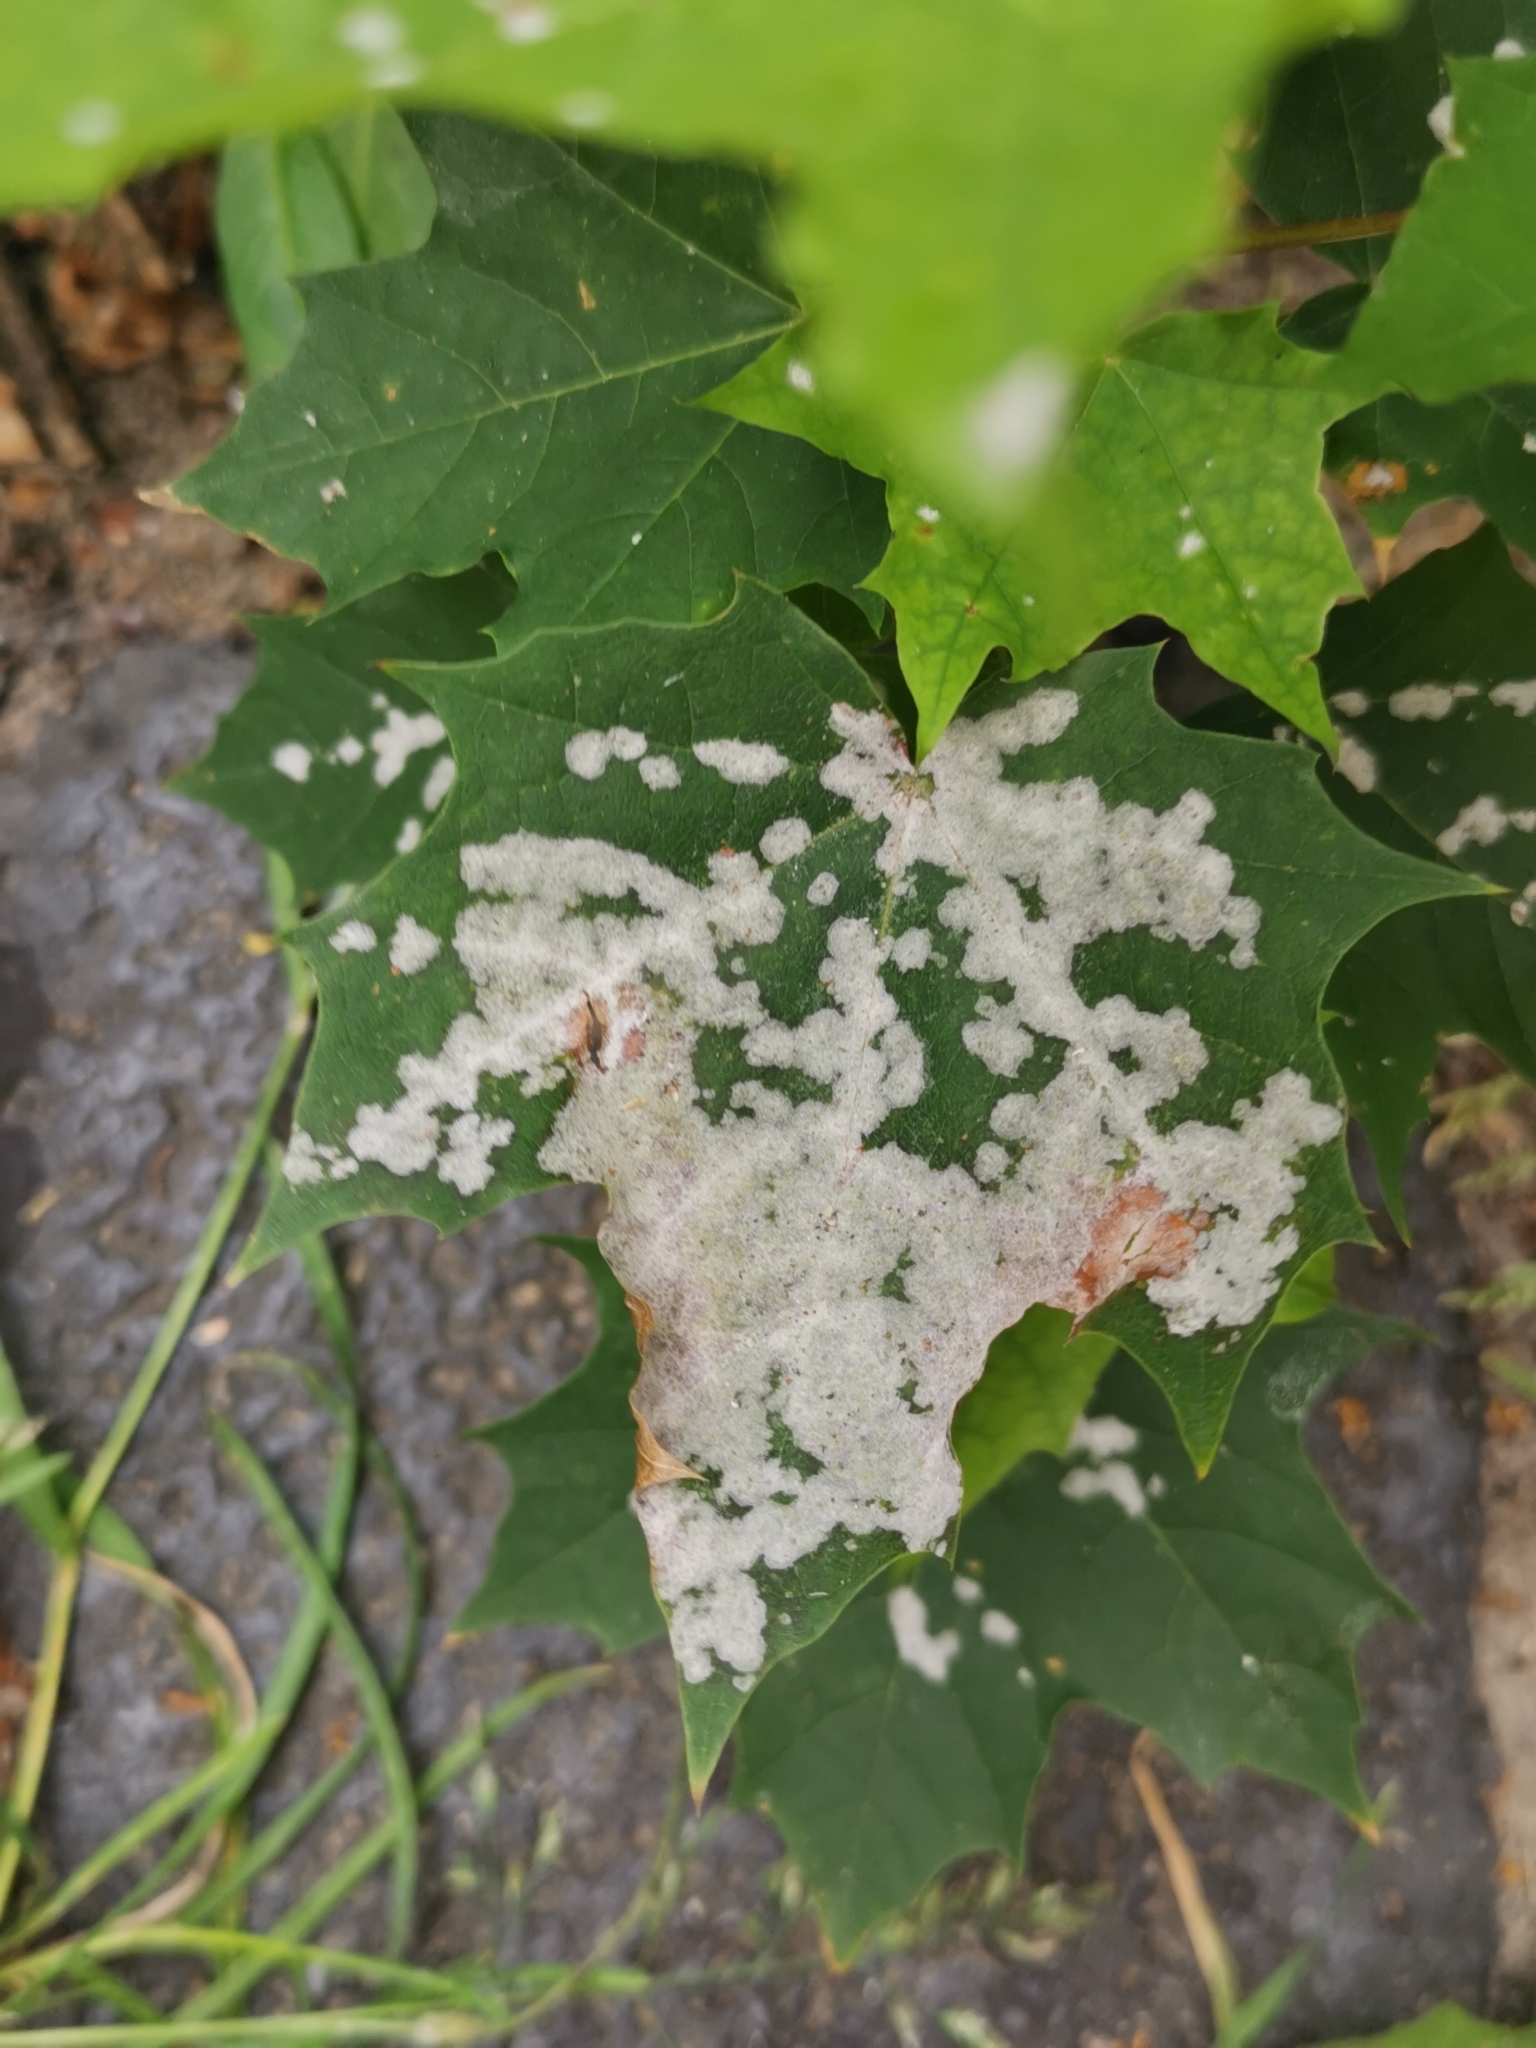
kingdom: Fungi
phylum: Ascomycota
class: Leotiomycetes
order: Helotiales
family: Erysiphaceae
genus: Sawadaea
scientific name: Sawadaea tulasnei
